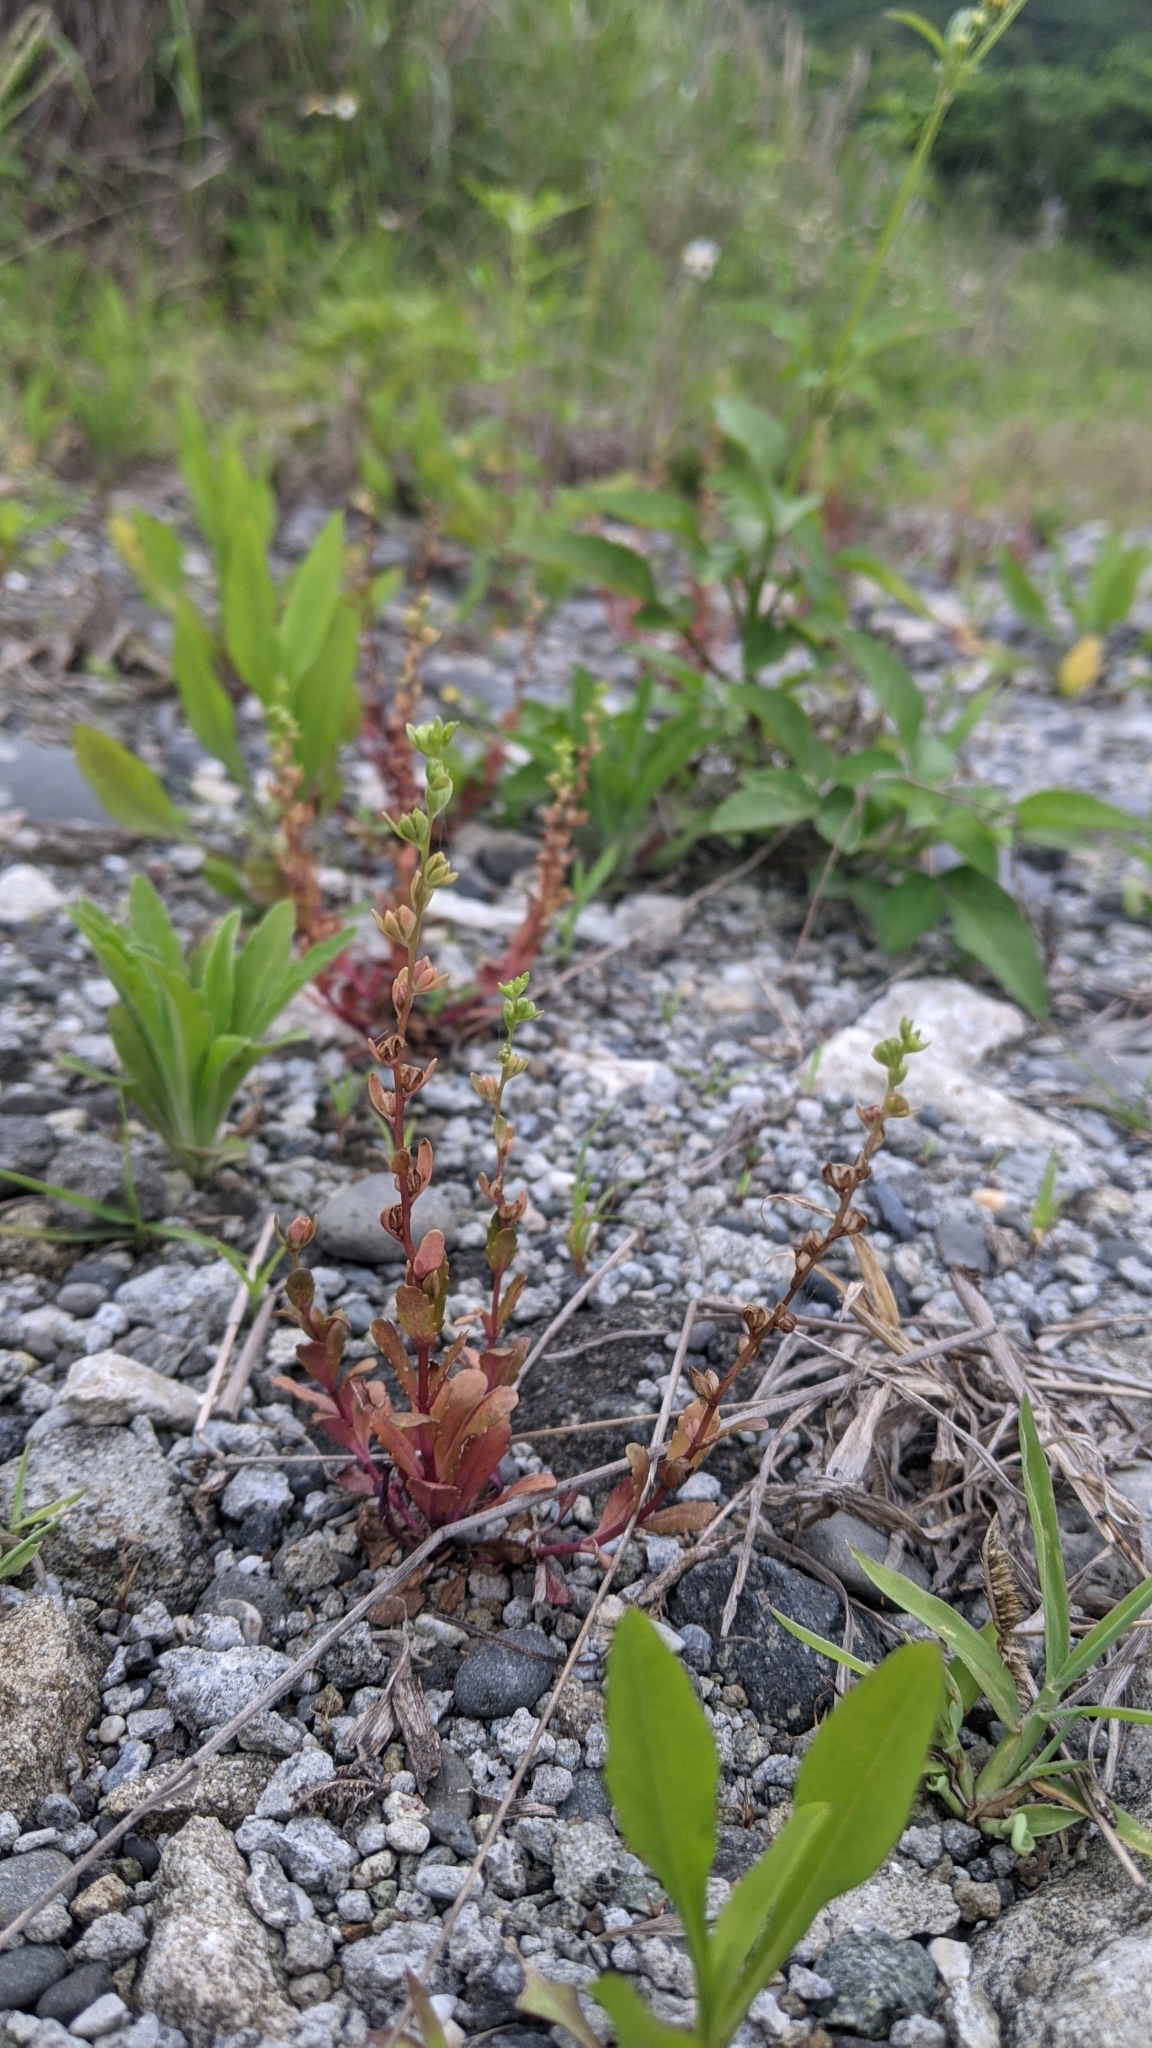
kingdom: Plantae
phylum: Tracheophyta
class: Magnoliopsida
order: Lamiales
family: Plantaginaceae
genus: Veronica
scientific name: Veronica peregrina
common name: Neckweed
